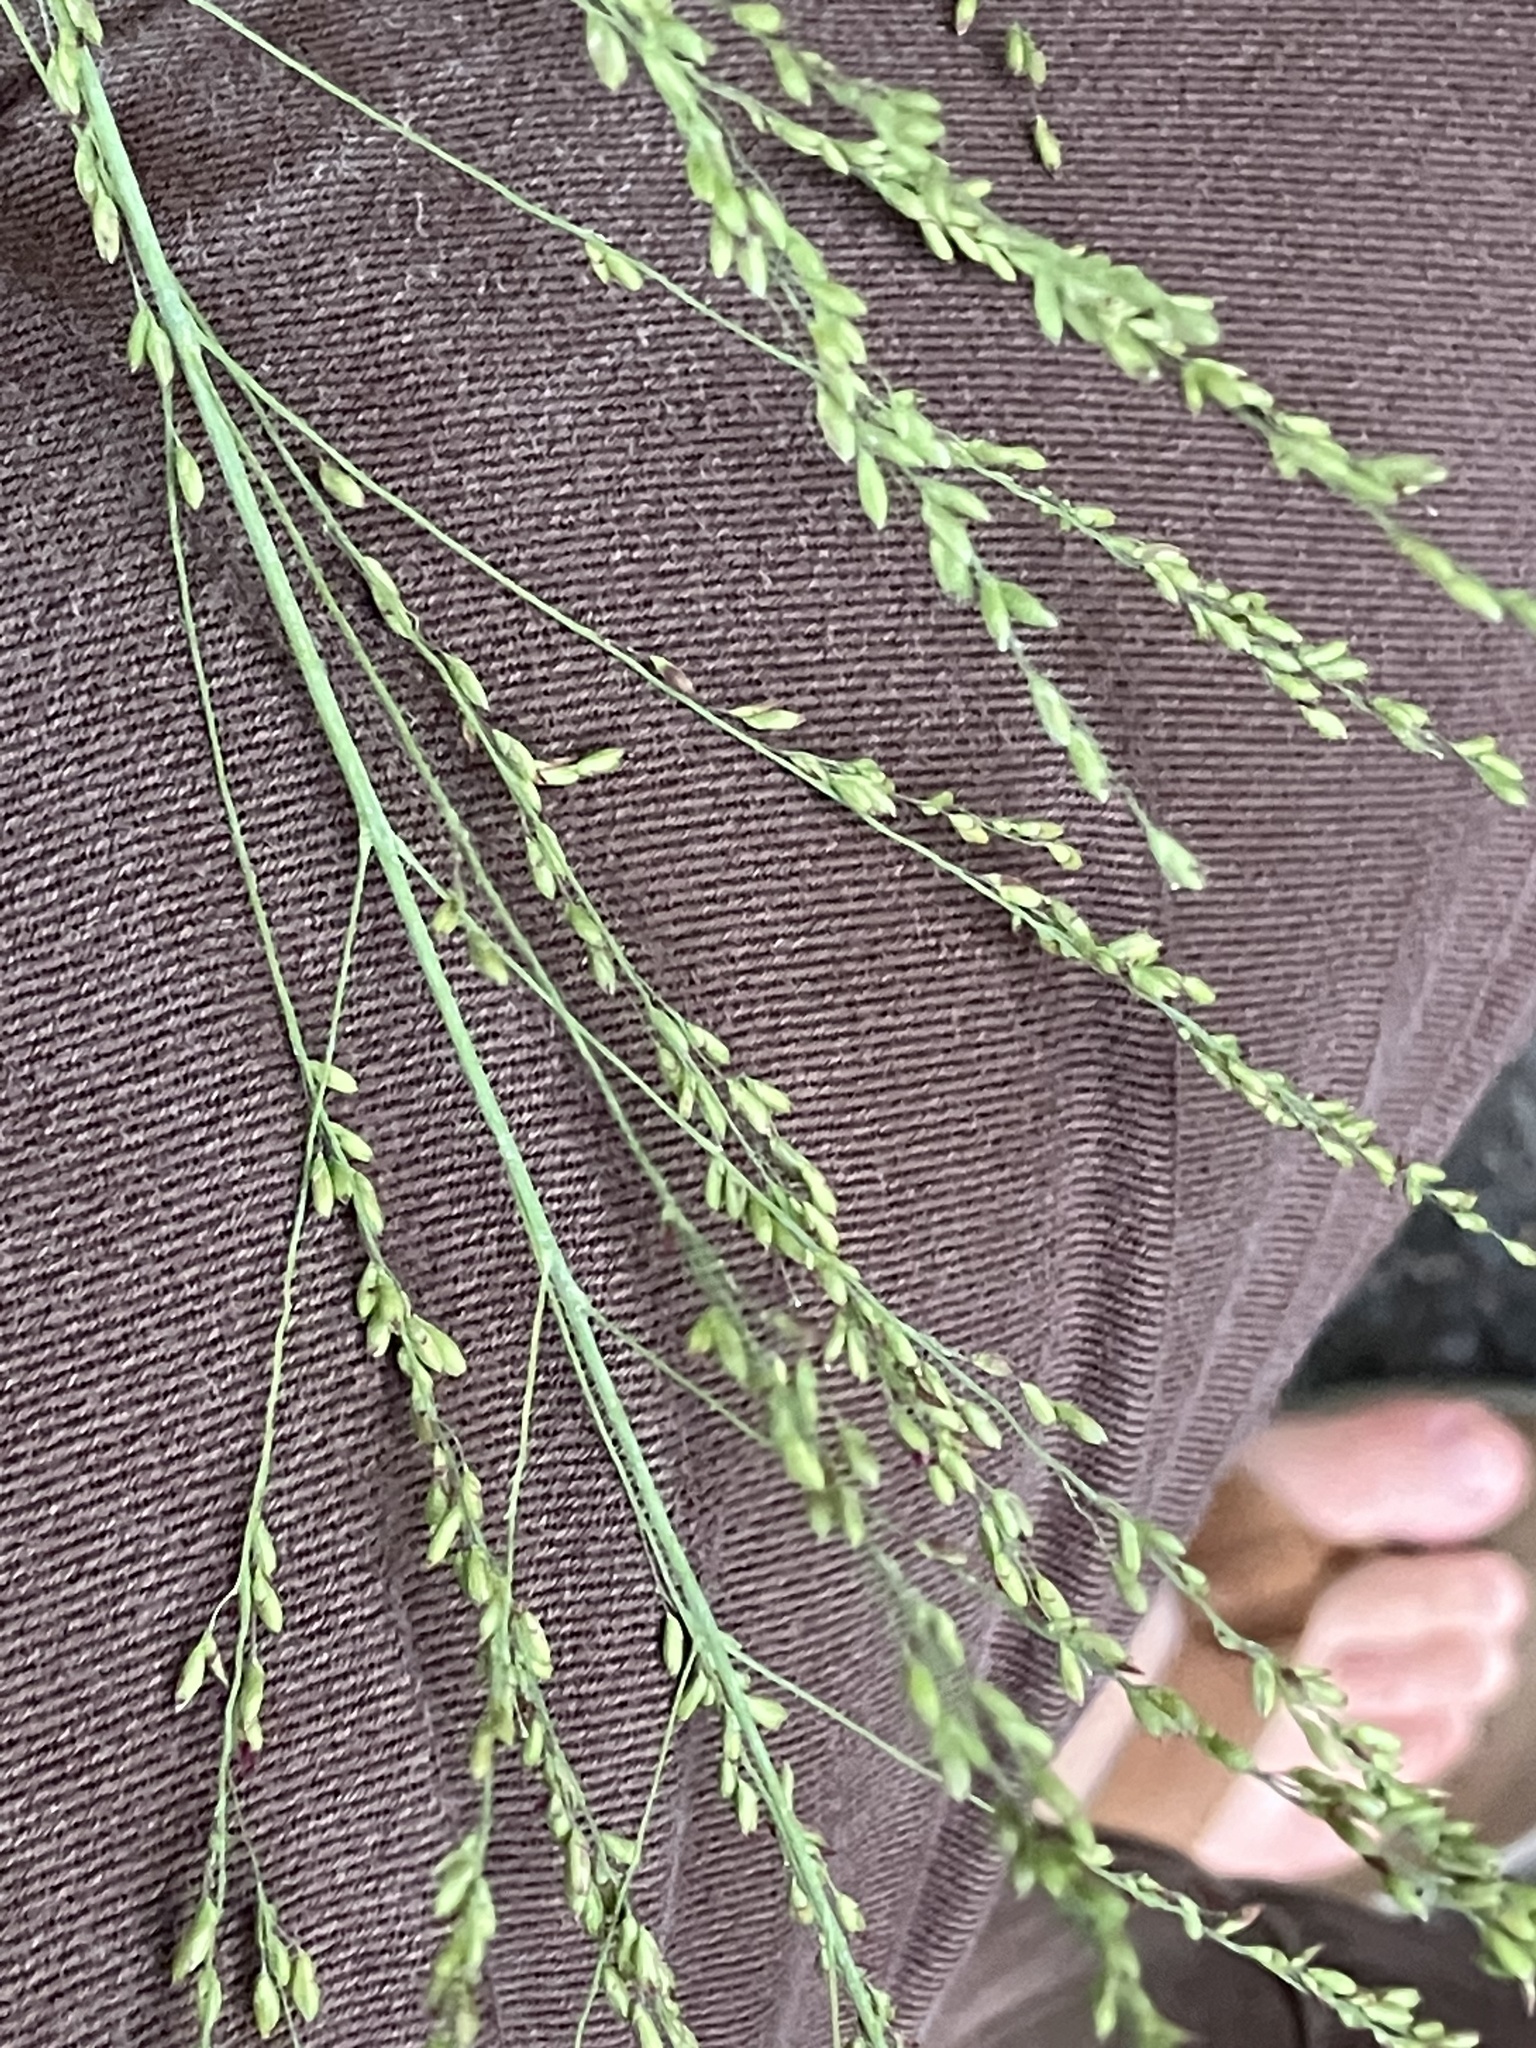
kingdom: Plantae
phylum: Tracheophyta
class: Liliopsida
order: Poales
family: Poaceae
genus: Megathyrsus
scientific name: Megathyrsus maximus
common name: Guineagrass
